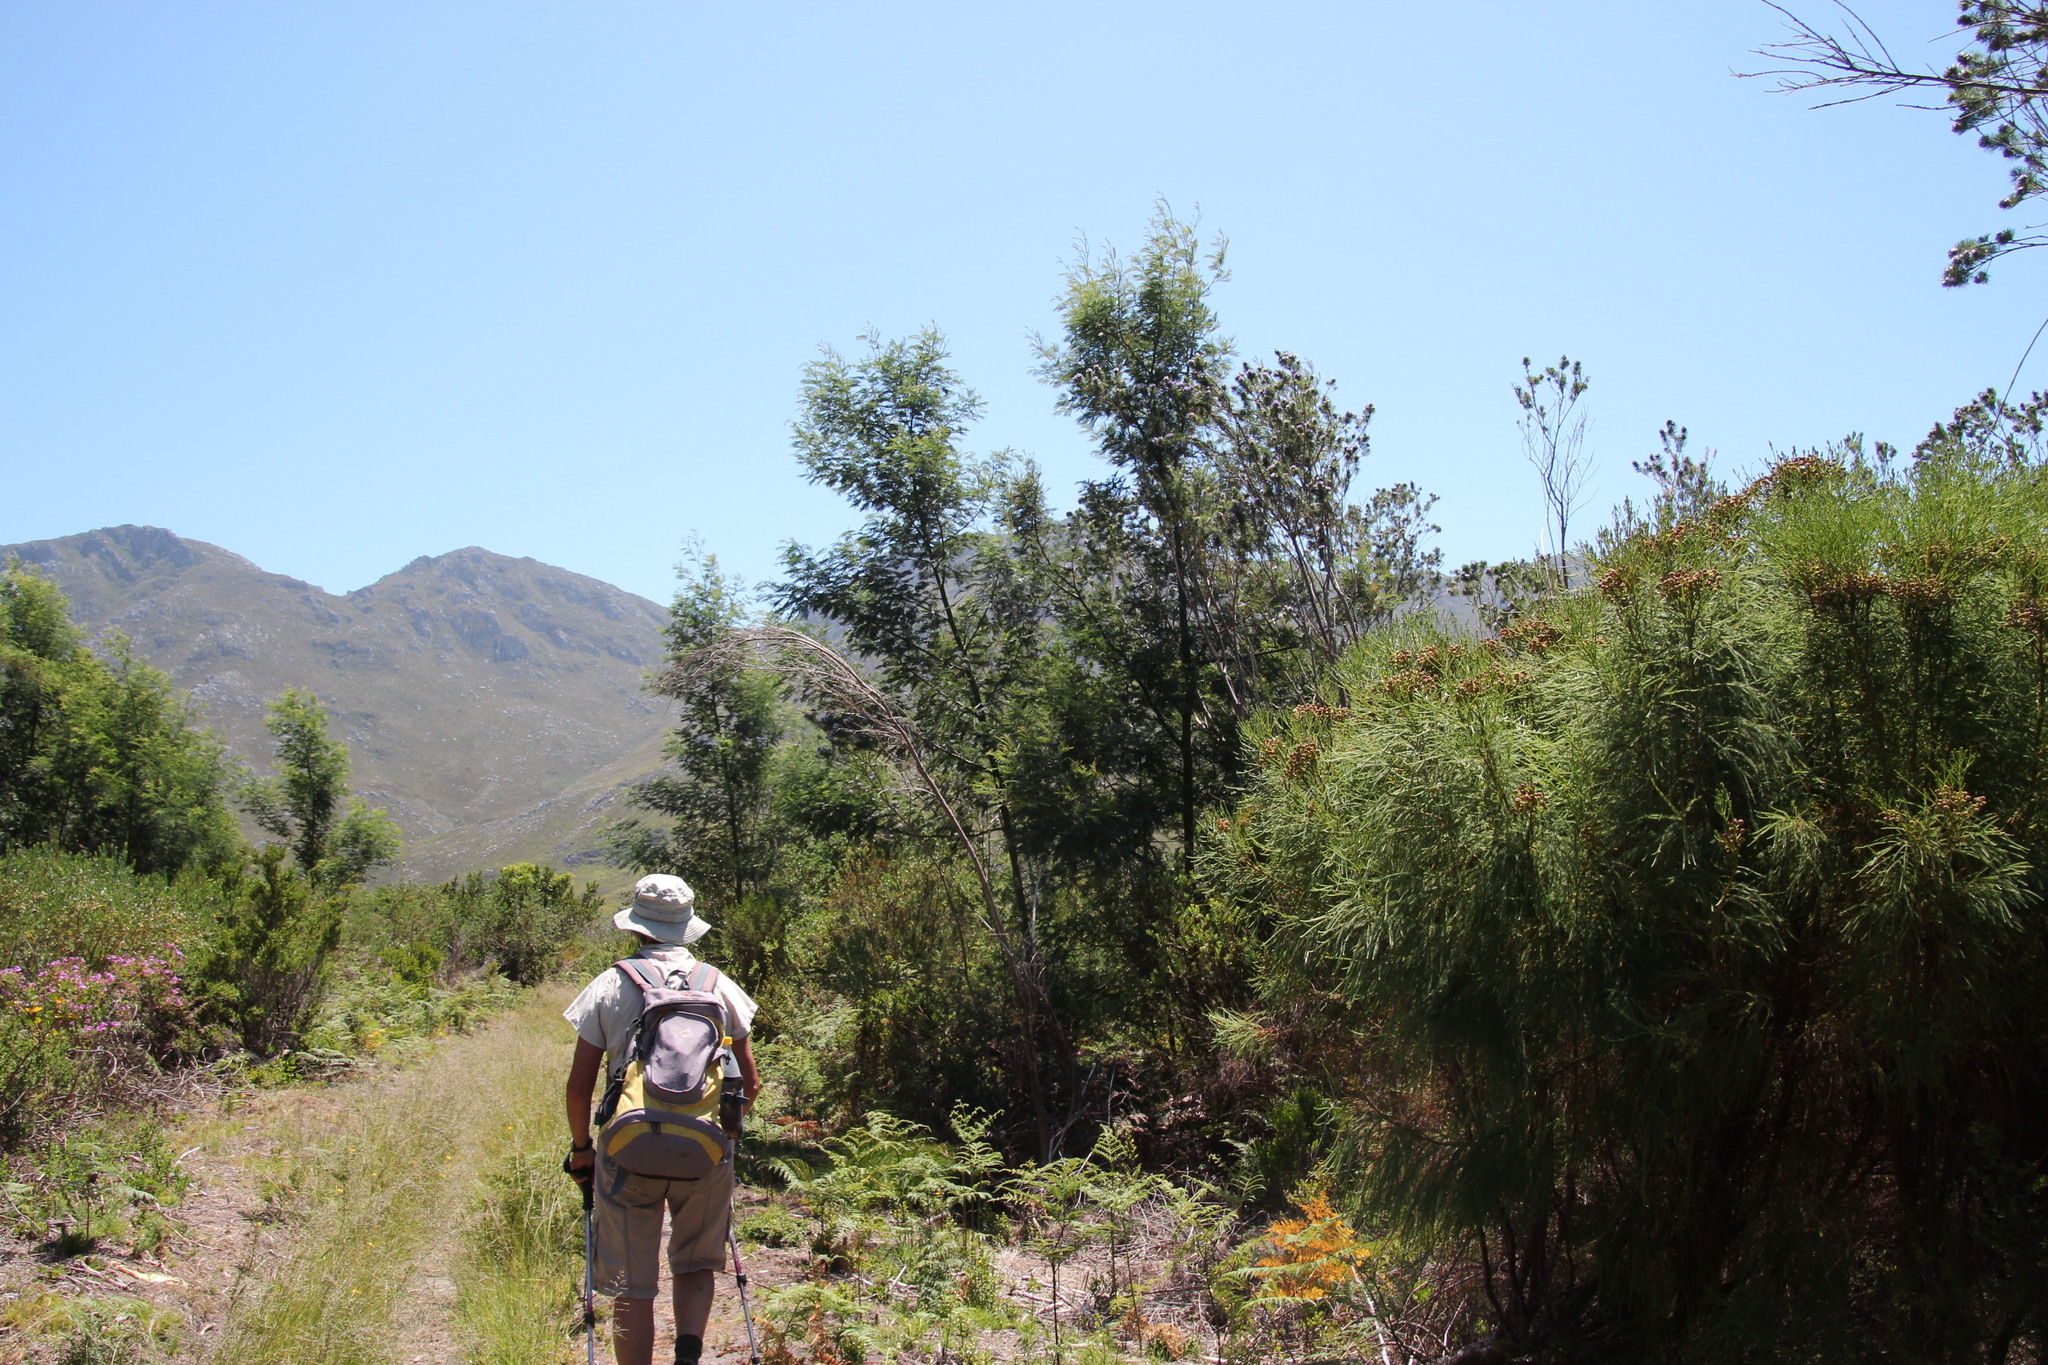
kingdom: Plantae
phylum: Tracheophyta
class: Magnoliopsida
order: Fabales
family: Fabaceae
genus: Acacia
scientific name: Acacia mearnsii
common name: Black wattle
